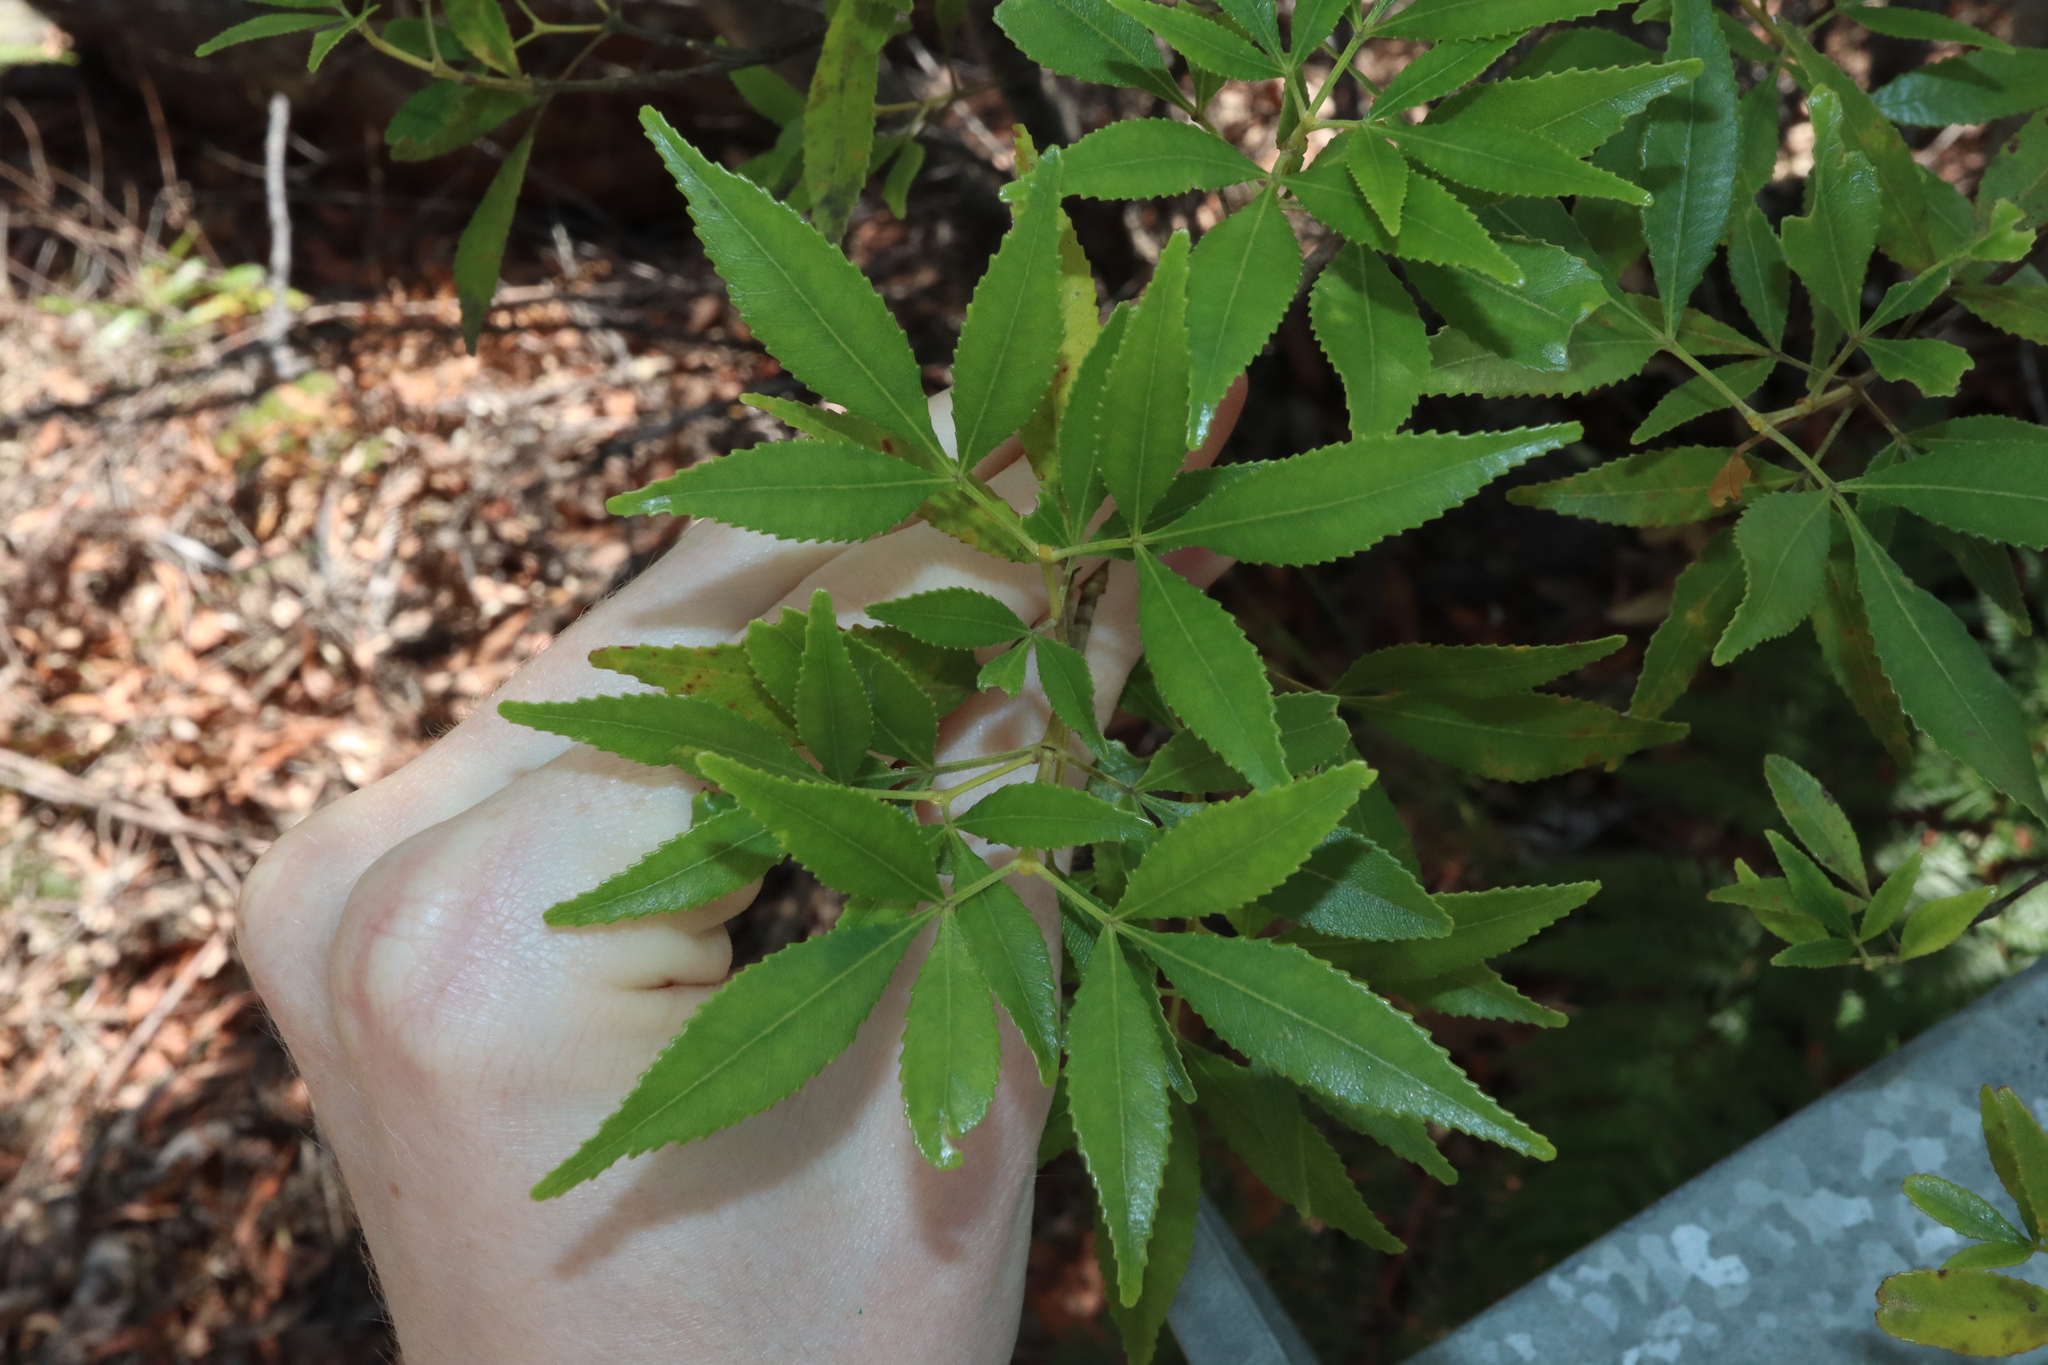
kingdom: Plantae
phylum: Tracheophyta
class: Magnoliopsida
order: Oxalidales
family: Cunoniaceae
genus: Ceratopetalum
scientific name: Ceratopetalum gummiferum
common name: Christmasbush
